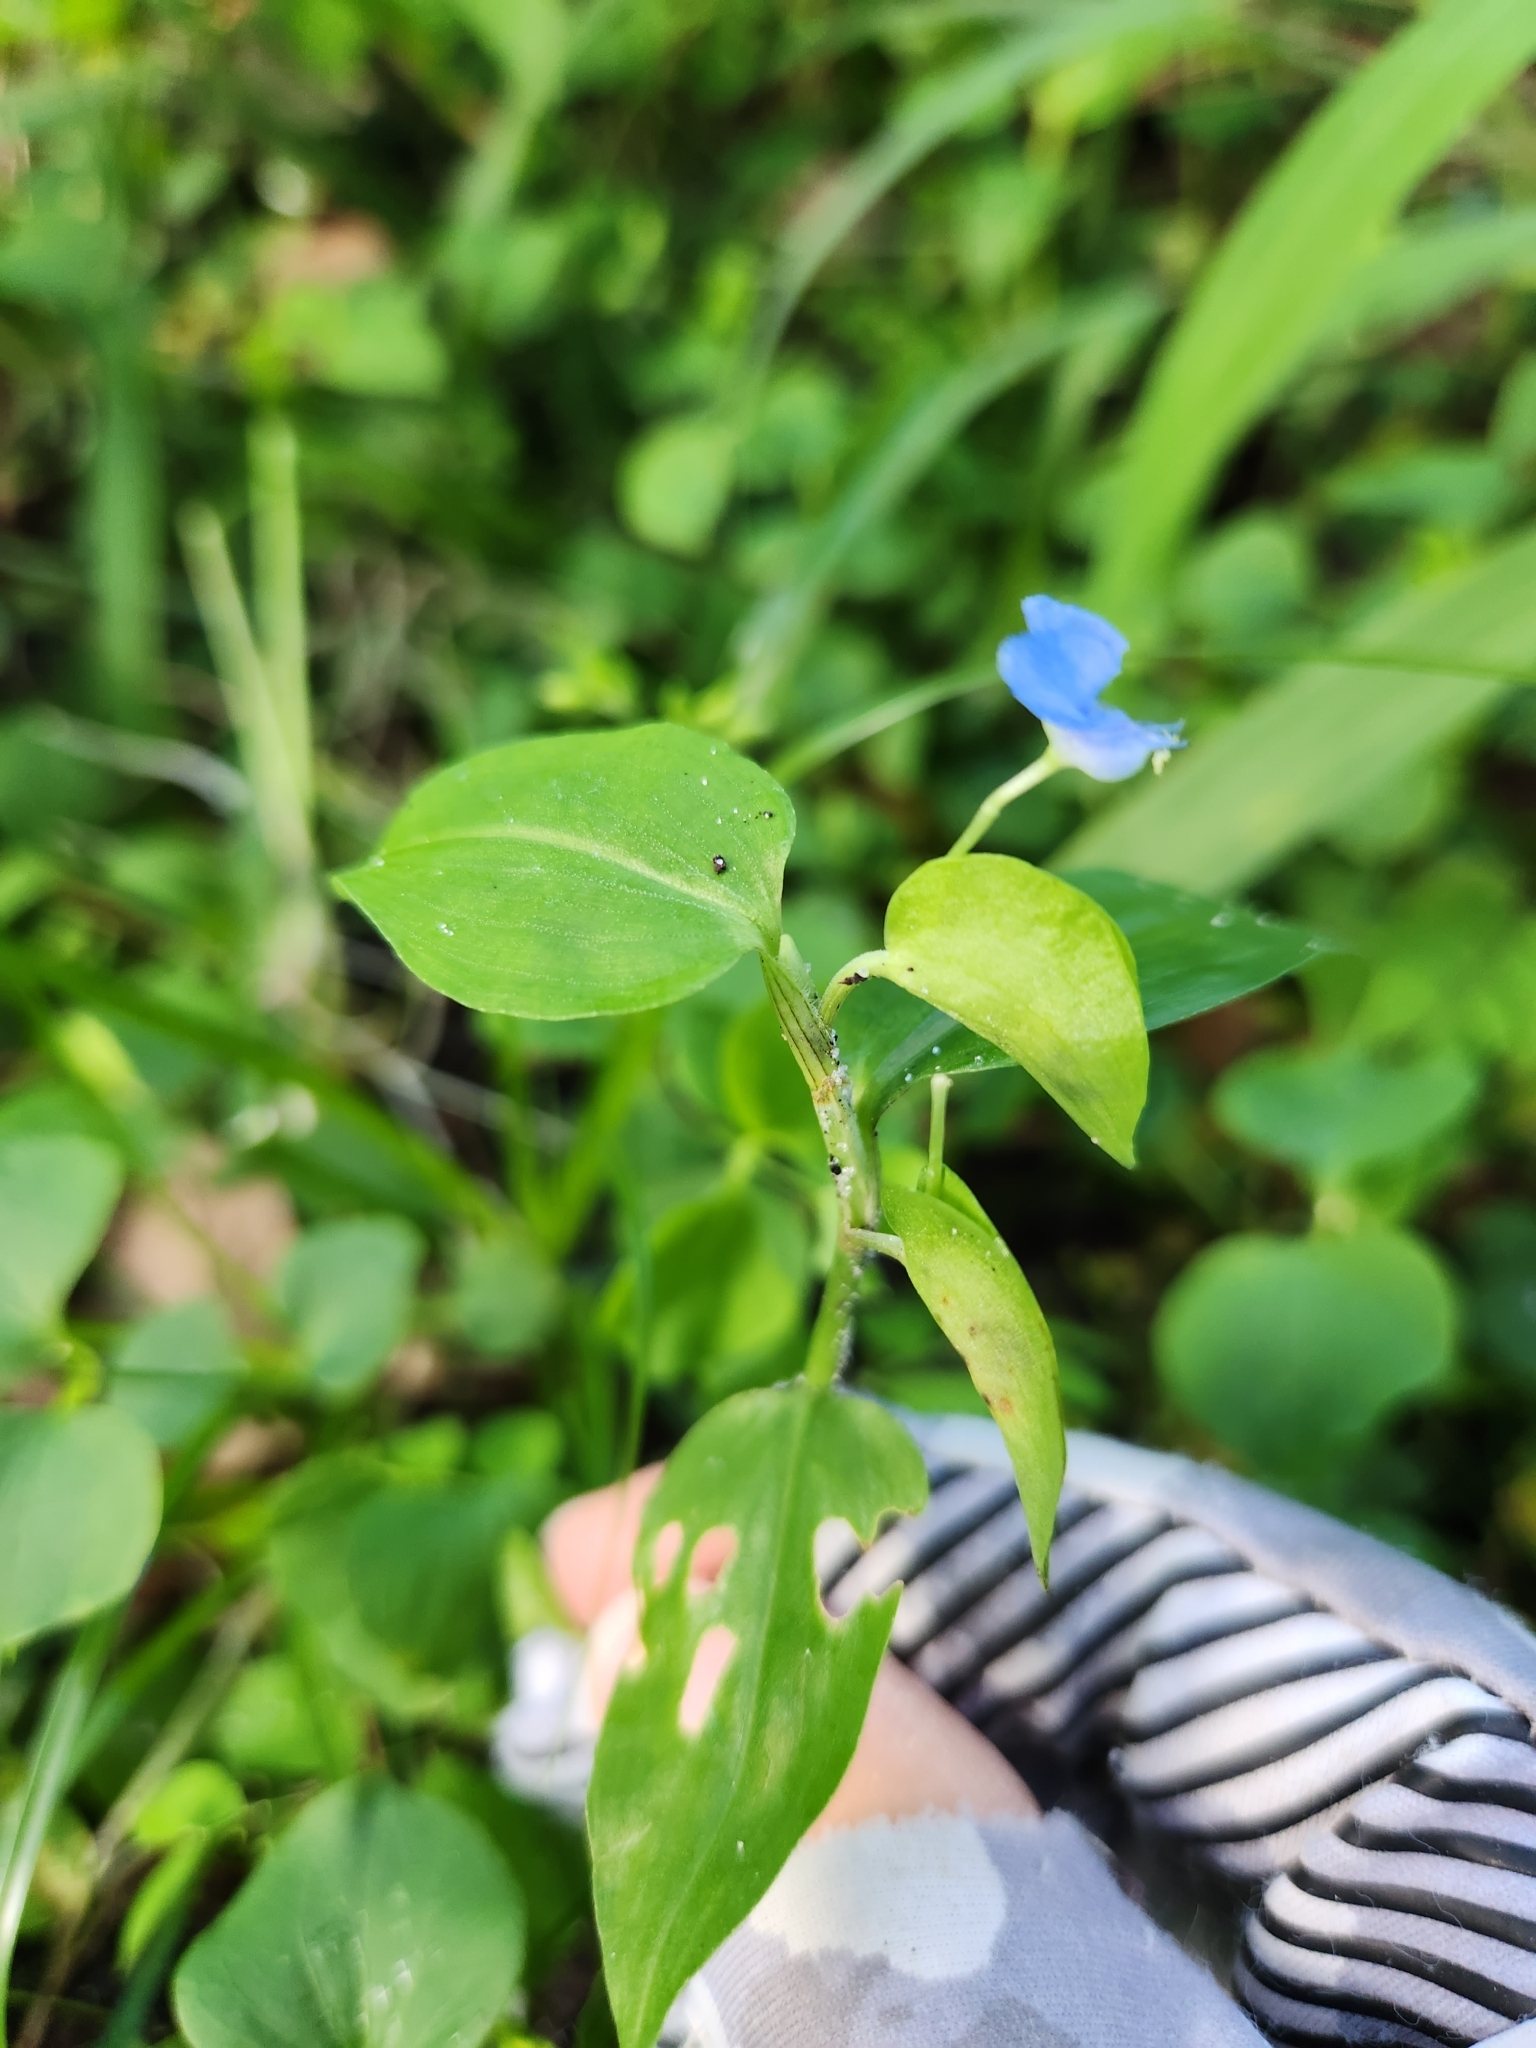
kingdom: Plantae
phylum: Tracheophyta
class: Liliopsida
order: Commelinales
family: Commelinaceae
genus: Commelina
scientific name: Commelina diffusa
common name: Climbing dayflower
